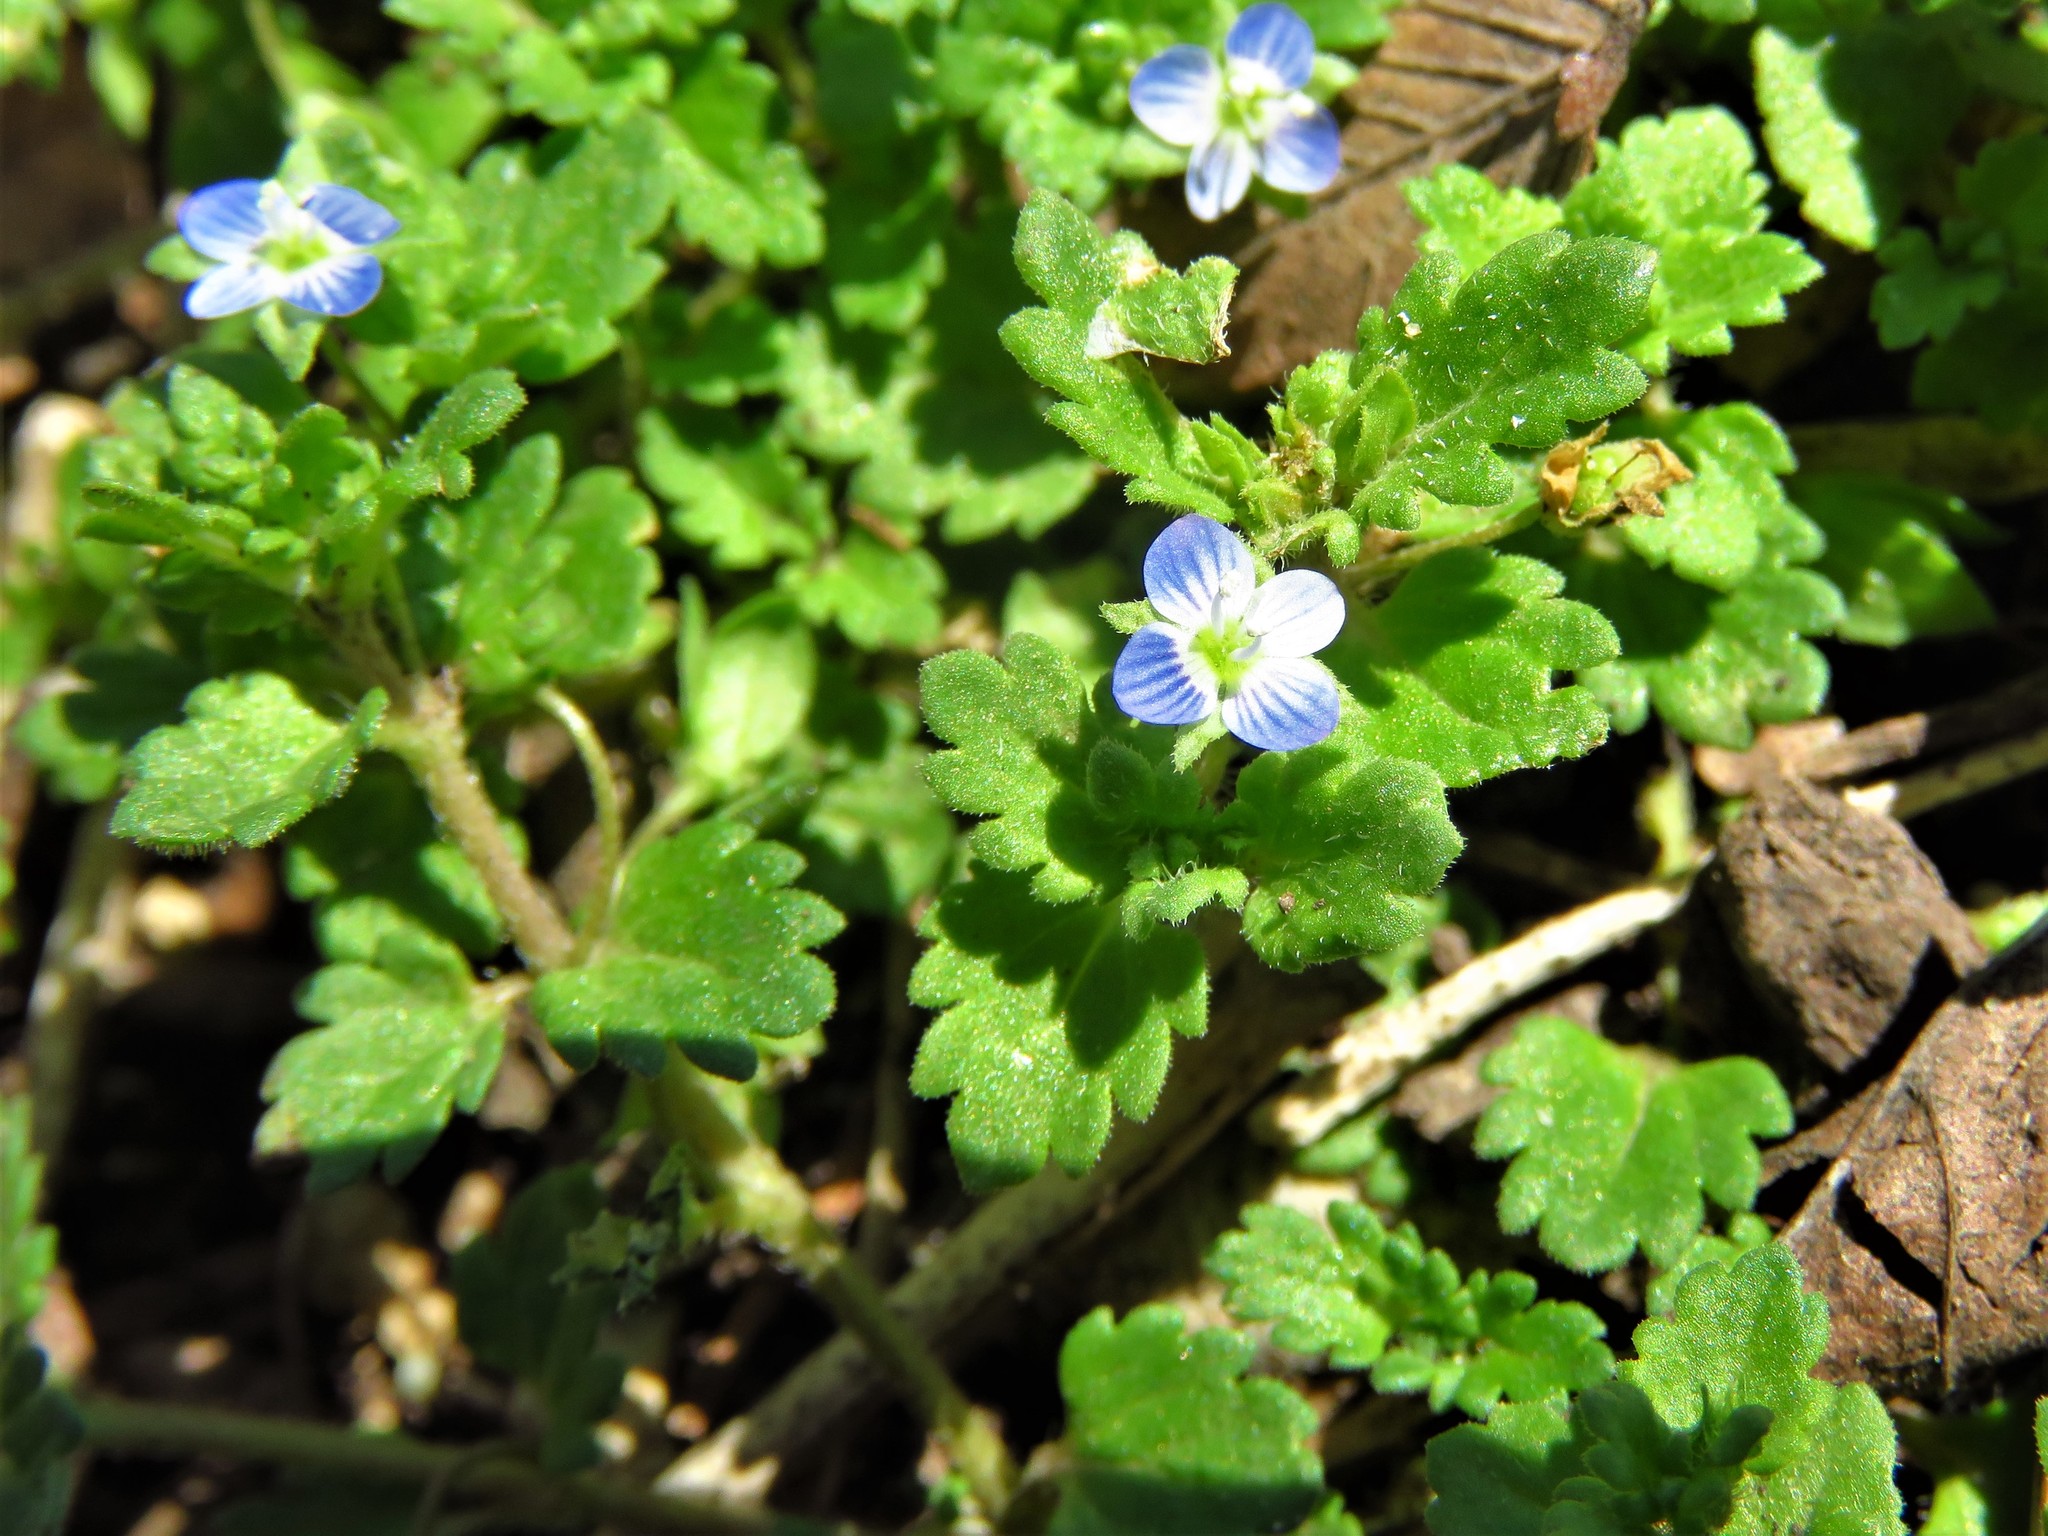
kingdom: Plantae
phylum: Tracheophyta
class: Magnoliopsida
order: Lamiales
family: Plantaginaceae
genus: Veronica
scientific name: Veronica persica
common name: Common field-speedwell
